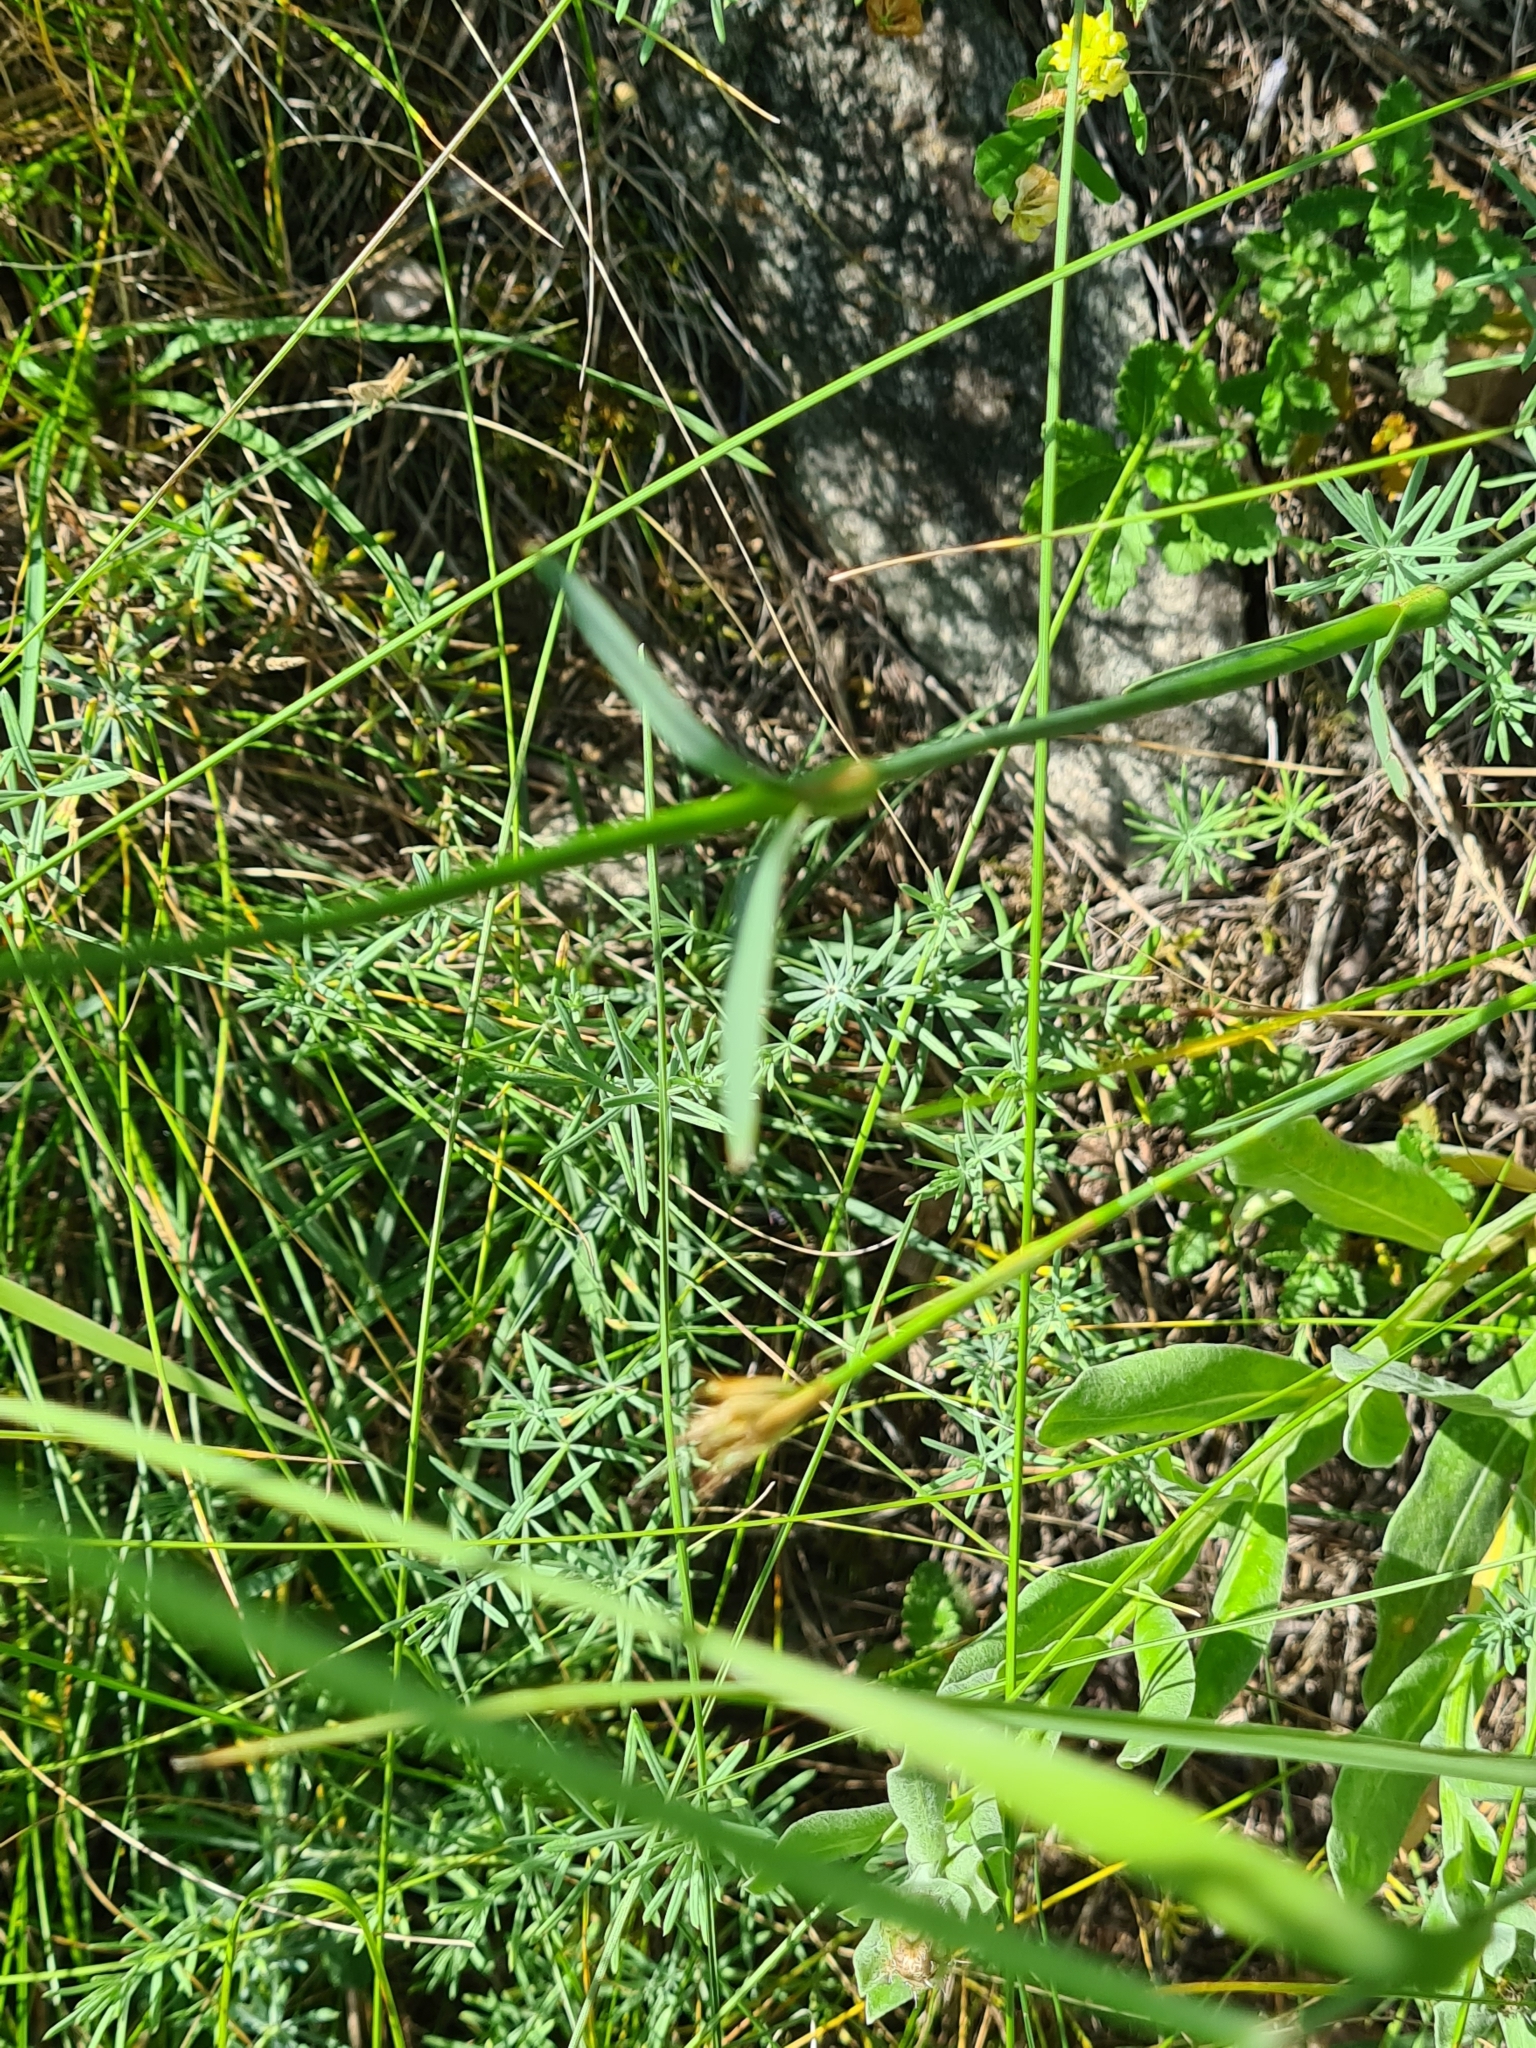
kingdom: Plantae
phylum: Tracheophyta
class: Magnoliopsida
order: Caryophyllales
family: Caryophyllaceae
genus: Dianthus
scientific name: Dianthus carthusianorum
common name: Carthusian pink
